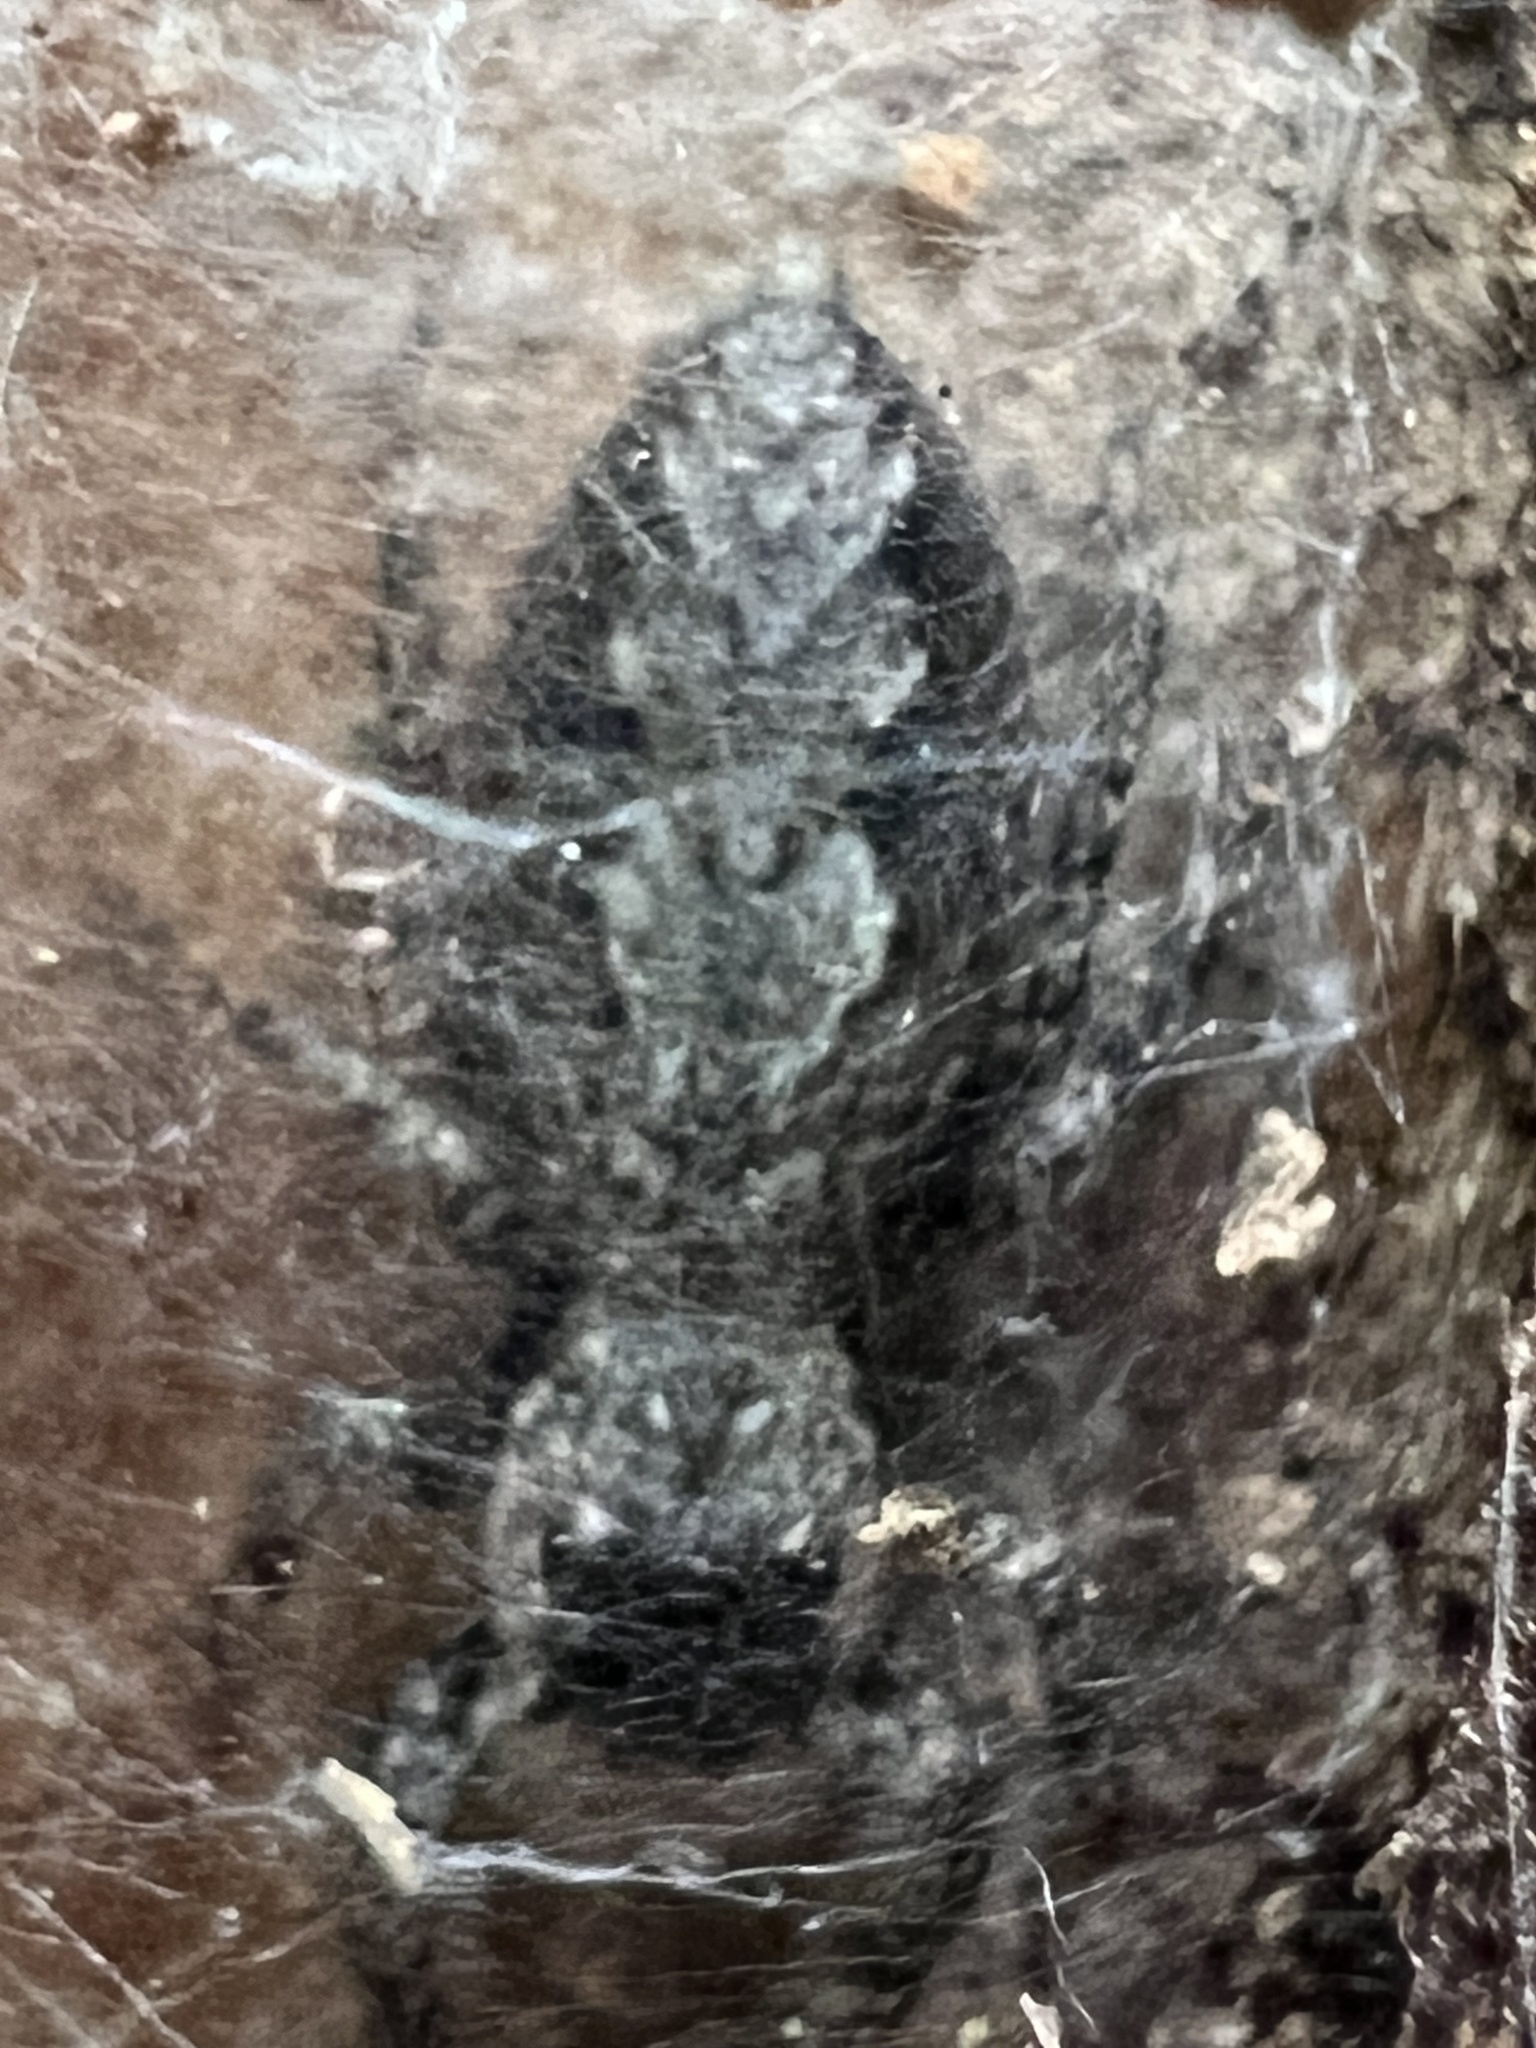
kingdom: Animalia
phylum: Arthropoda
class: Arachnida
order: Araneae
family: Salticidae
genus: Platycryptus
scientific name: Platycryptus undatus
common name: Tan jumping spider
